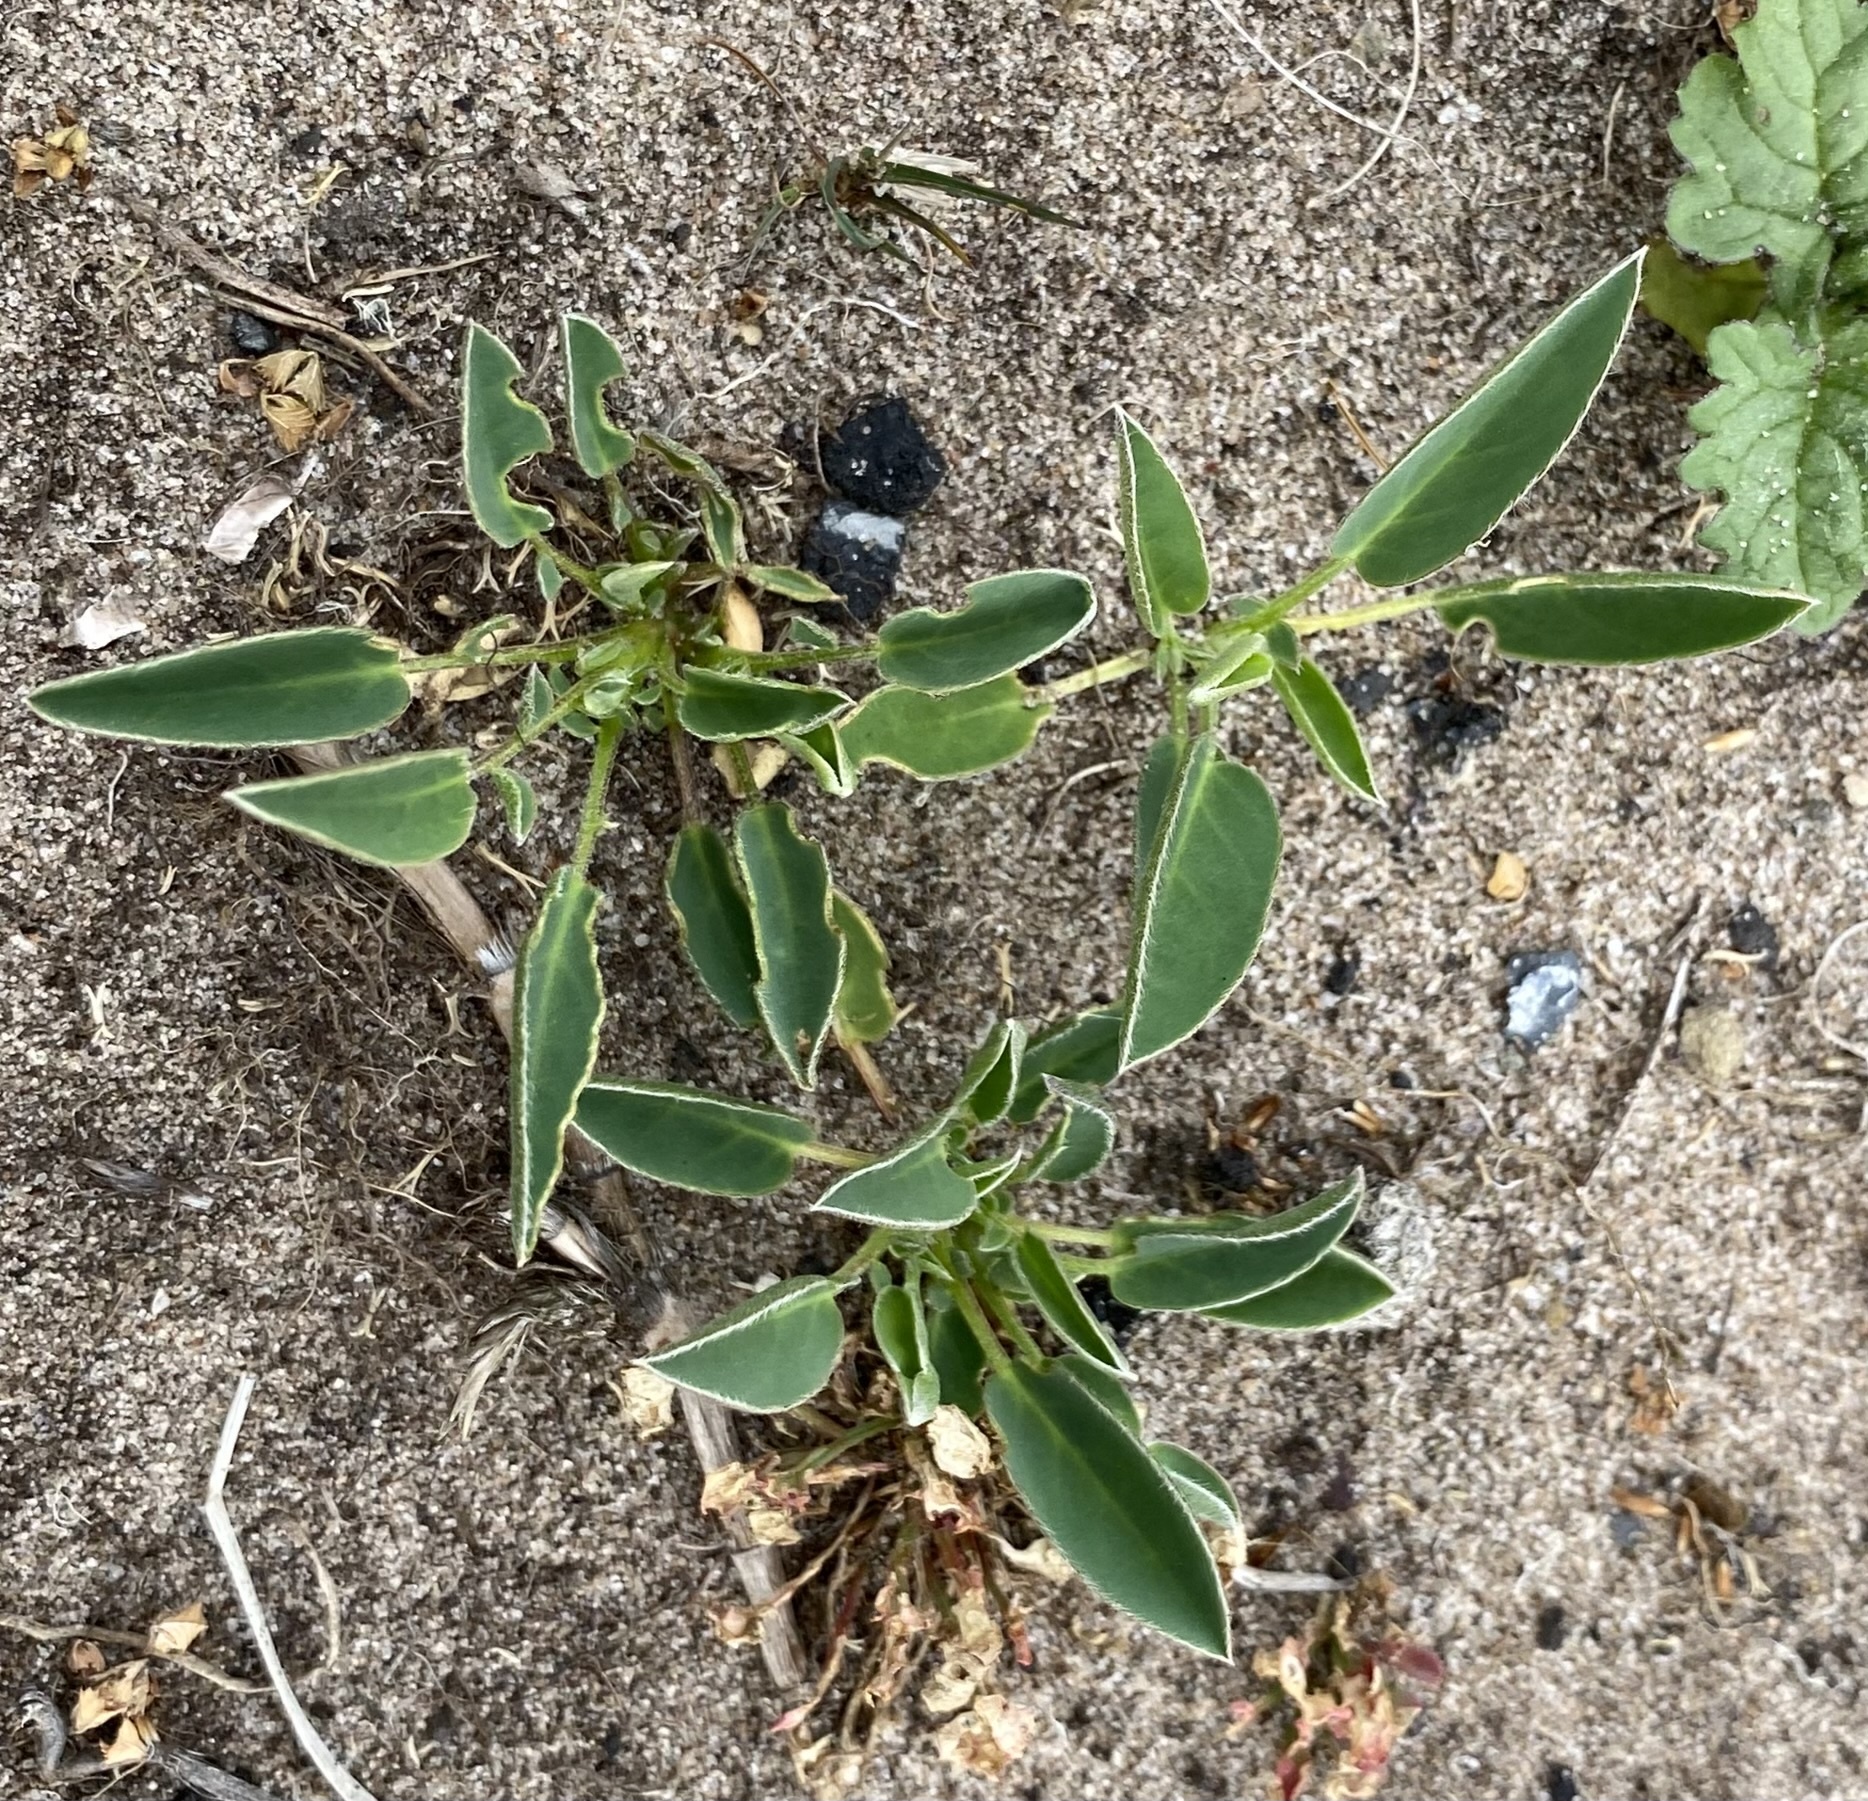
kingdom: Plantae
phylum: Tracheophyta
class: Magnoliopsida
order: Fabales
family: Fabaceae
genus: Anthyllis
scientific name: Anthyllis vulneraria
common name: Kidney vetch
